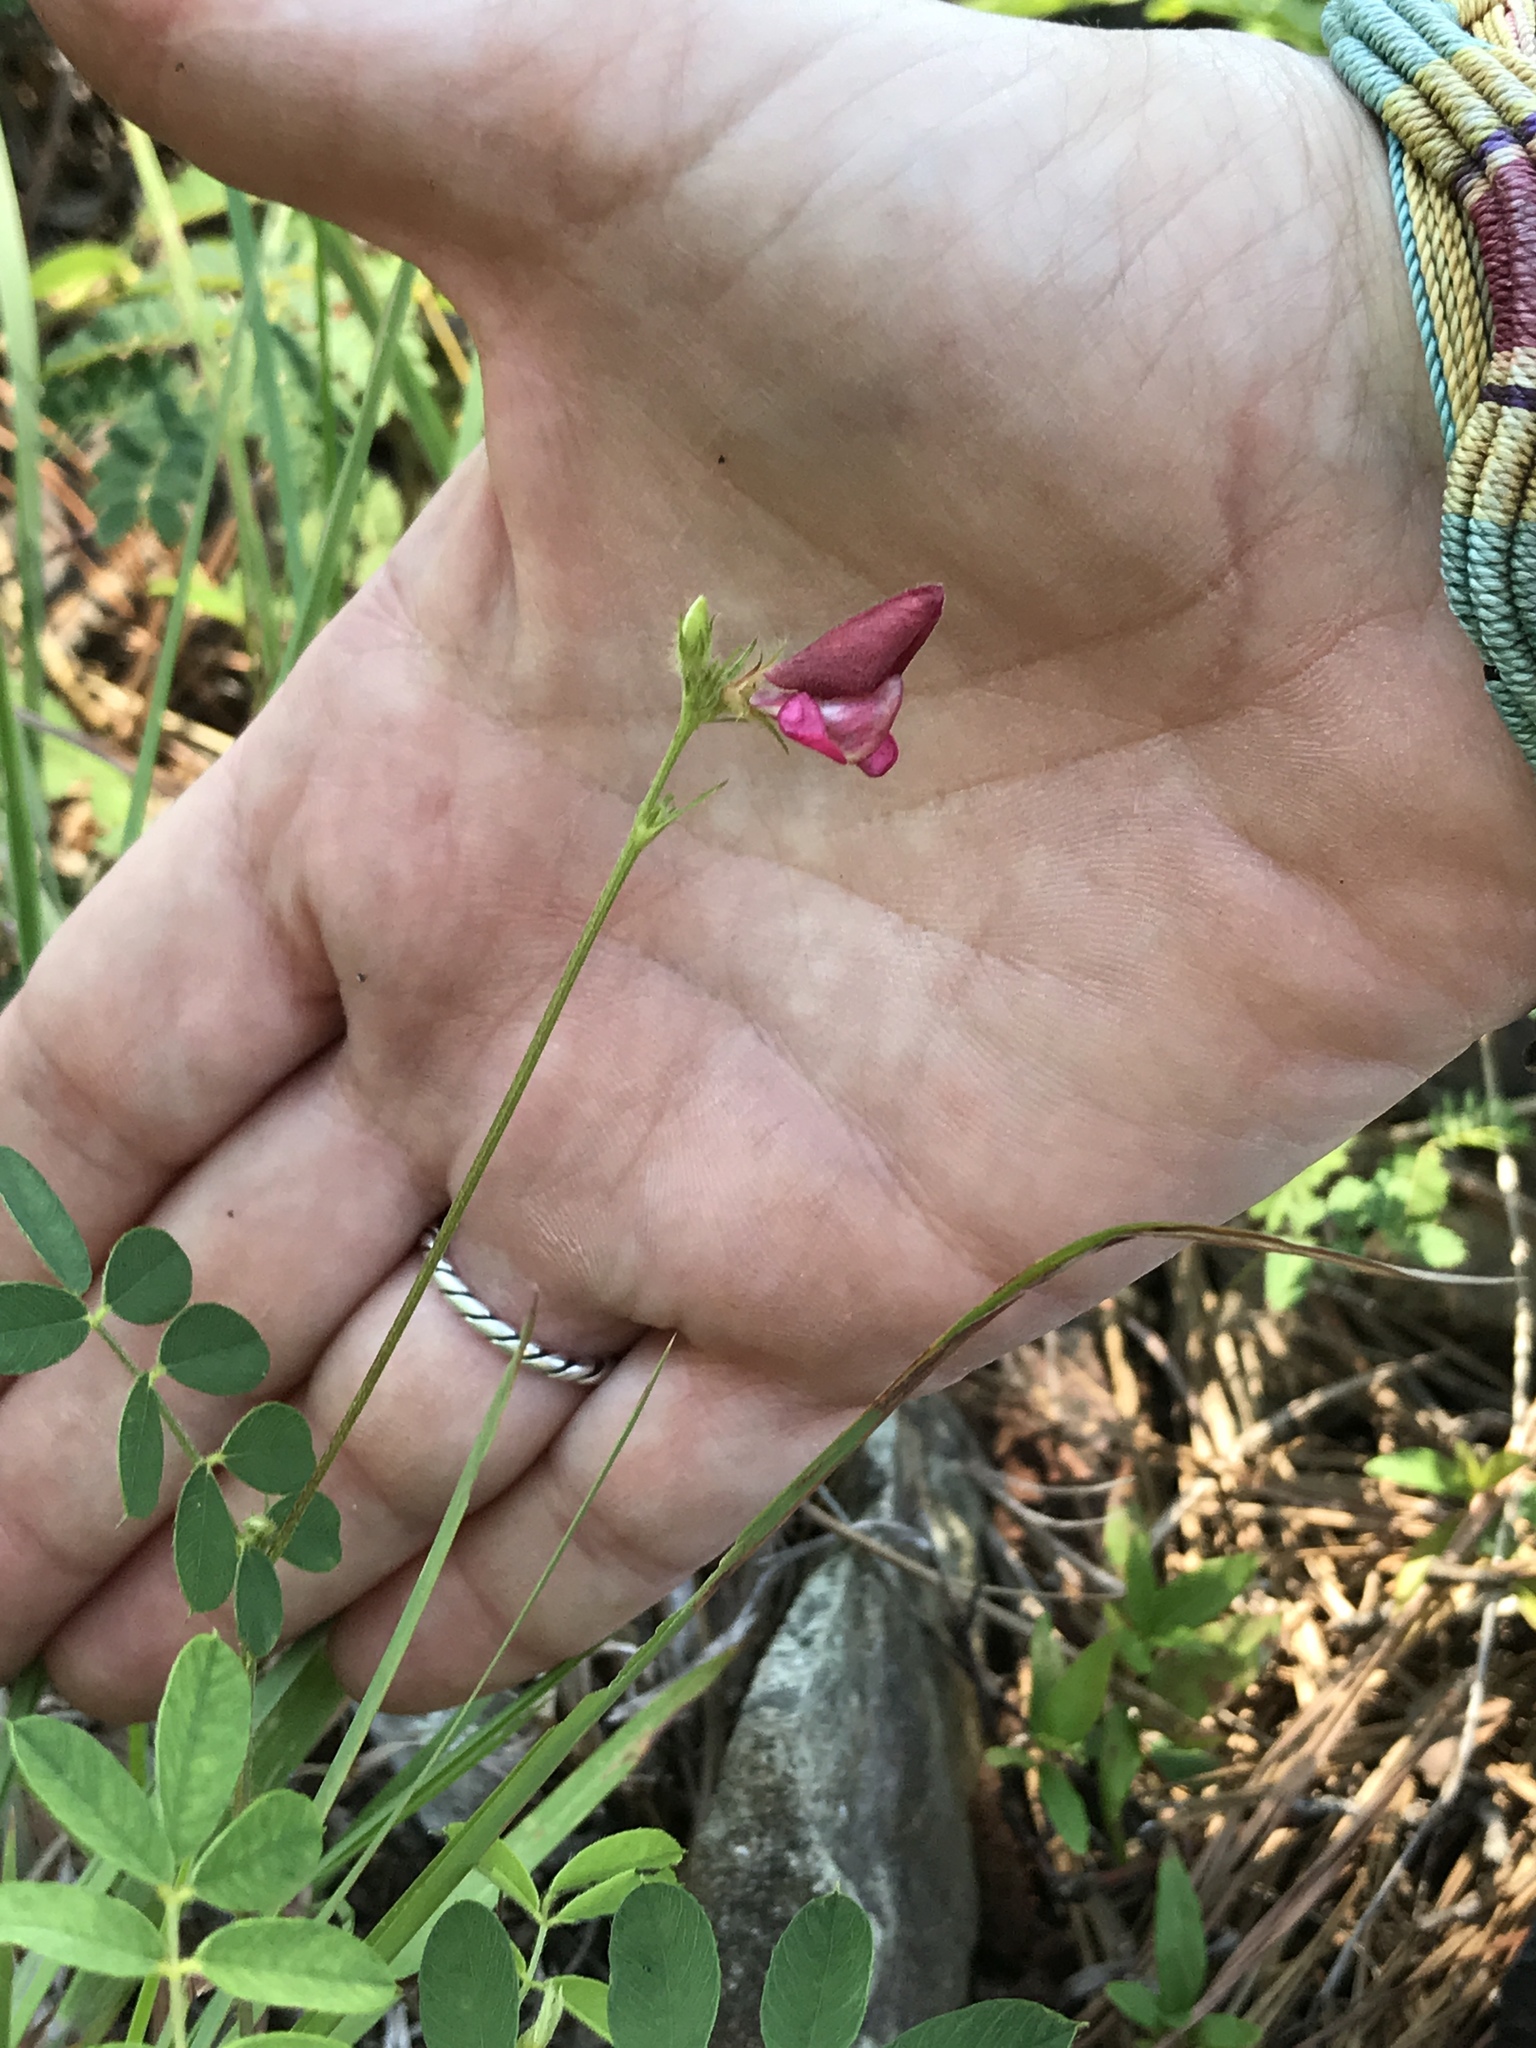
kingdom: Plantae
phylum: Tracheophyta
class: Magnoliopsida
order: Fabales
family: Fabaceae
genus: Tephrosia
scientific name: Tephrosia spicata
